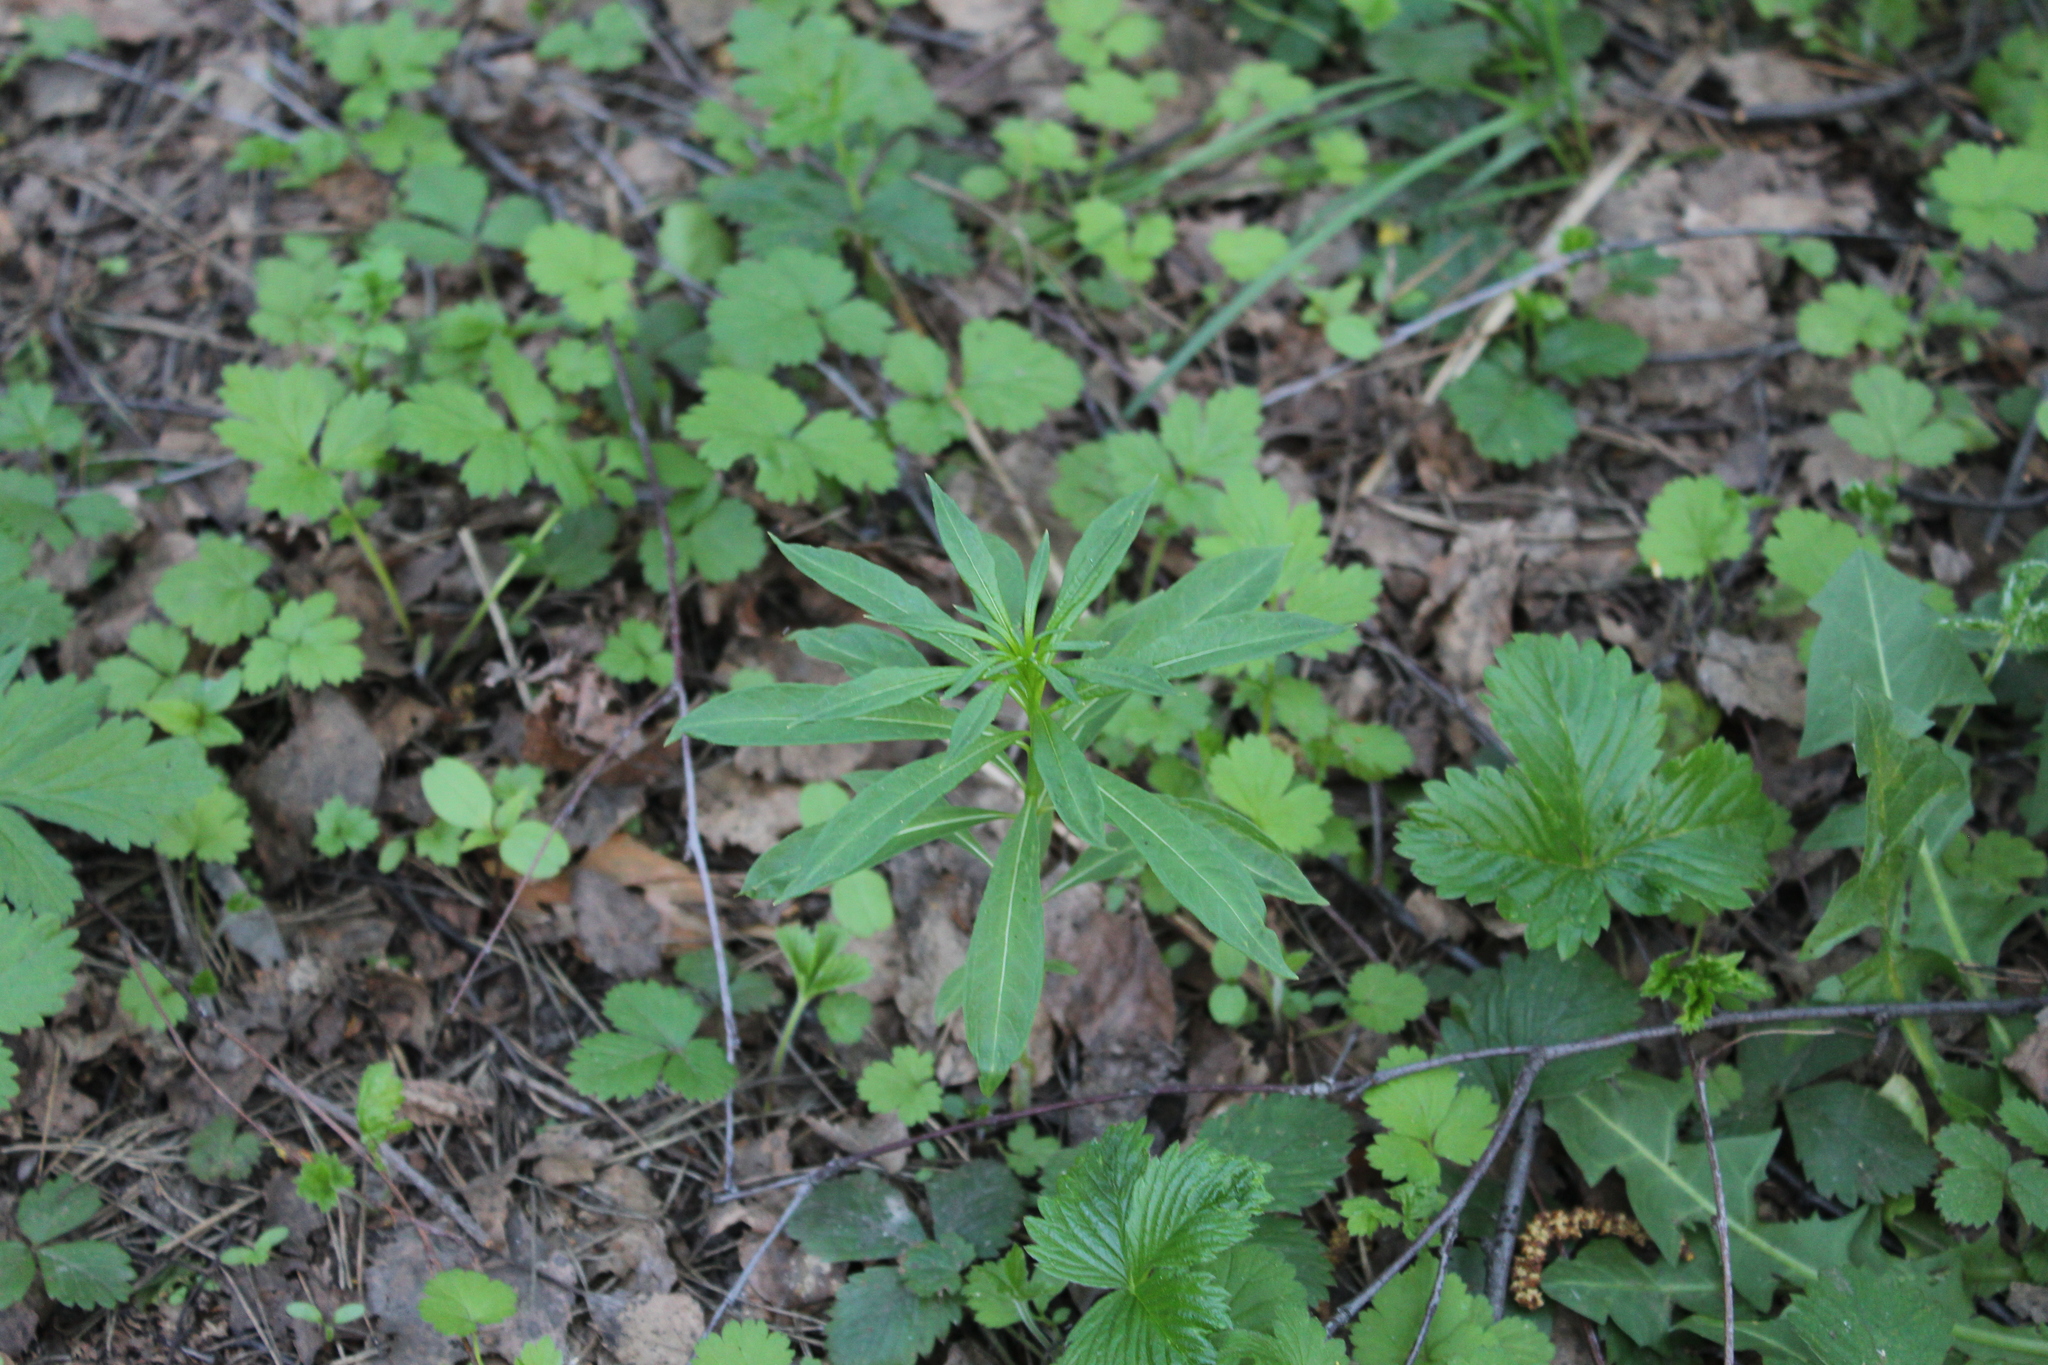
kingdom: Plantae
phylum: Tracheophyta
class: Magnoliopsida
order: Myrtales
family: Onagraceae
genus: Chamaenerion
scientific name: Chamaenerion angustifolium
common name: Fireweed
